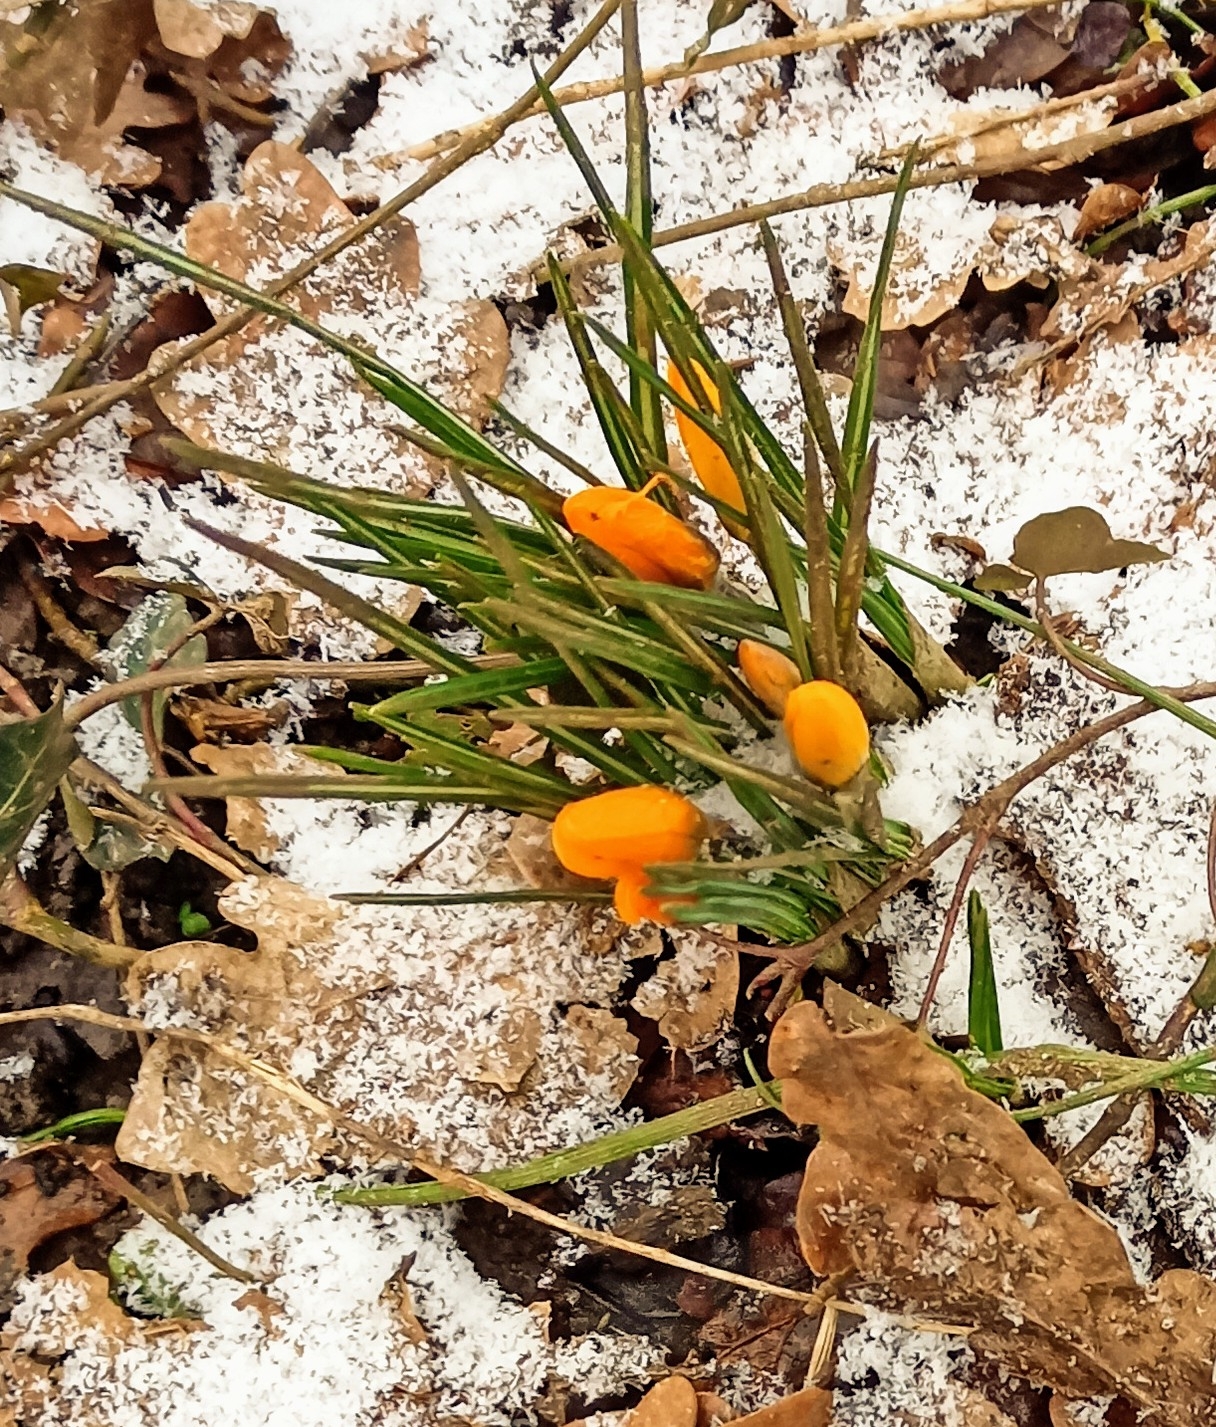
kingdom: Plantae
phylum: Tracheophyta
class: Liliopsida
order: Asparagales
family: Iridaceae
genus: Crocus
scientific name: Crocus luteus
